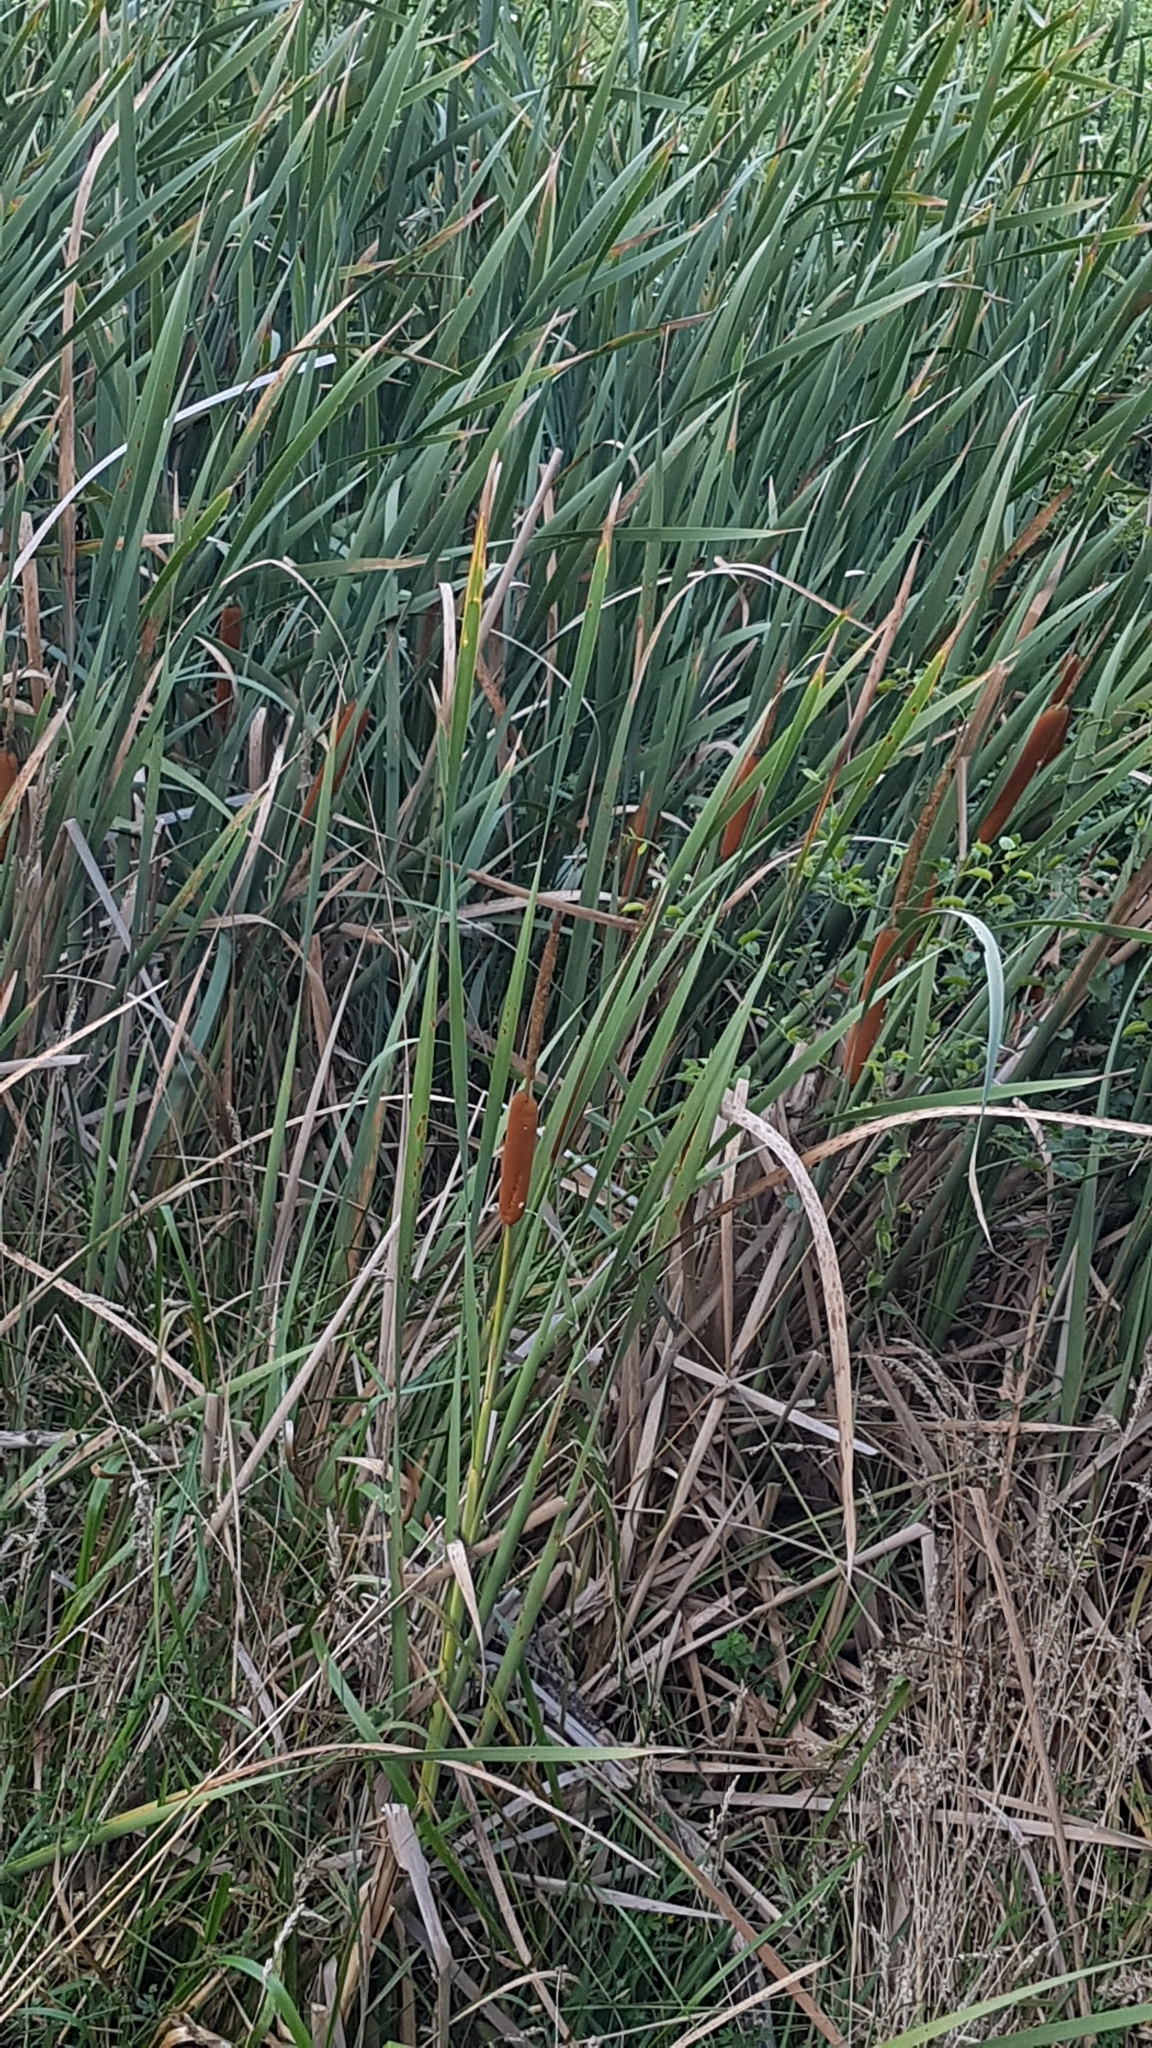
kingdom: Plantae
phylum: Tracheophyta
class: Liliopsida
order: Poales
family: Typhaceae
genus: Typha
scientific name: Typha orientalis
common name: Bullrush
